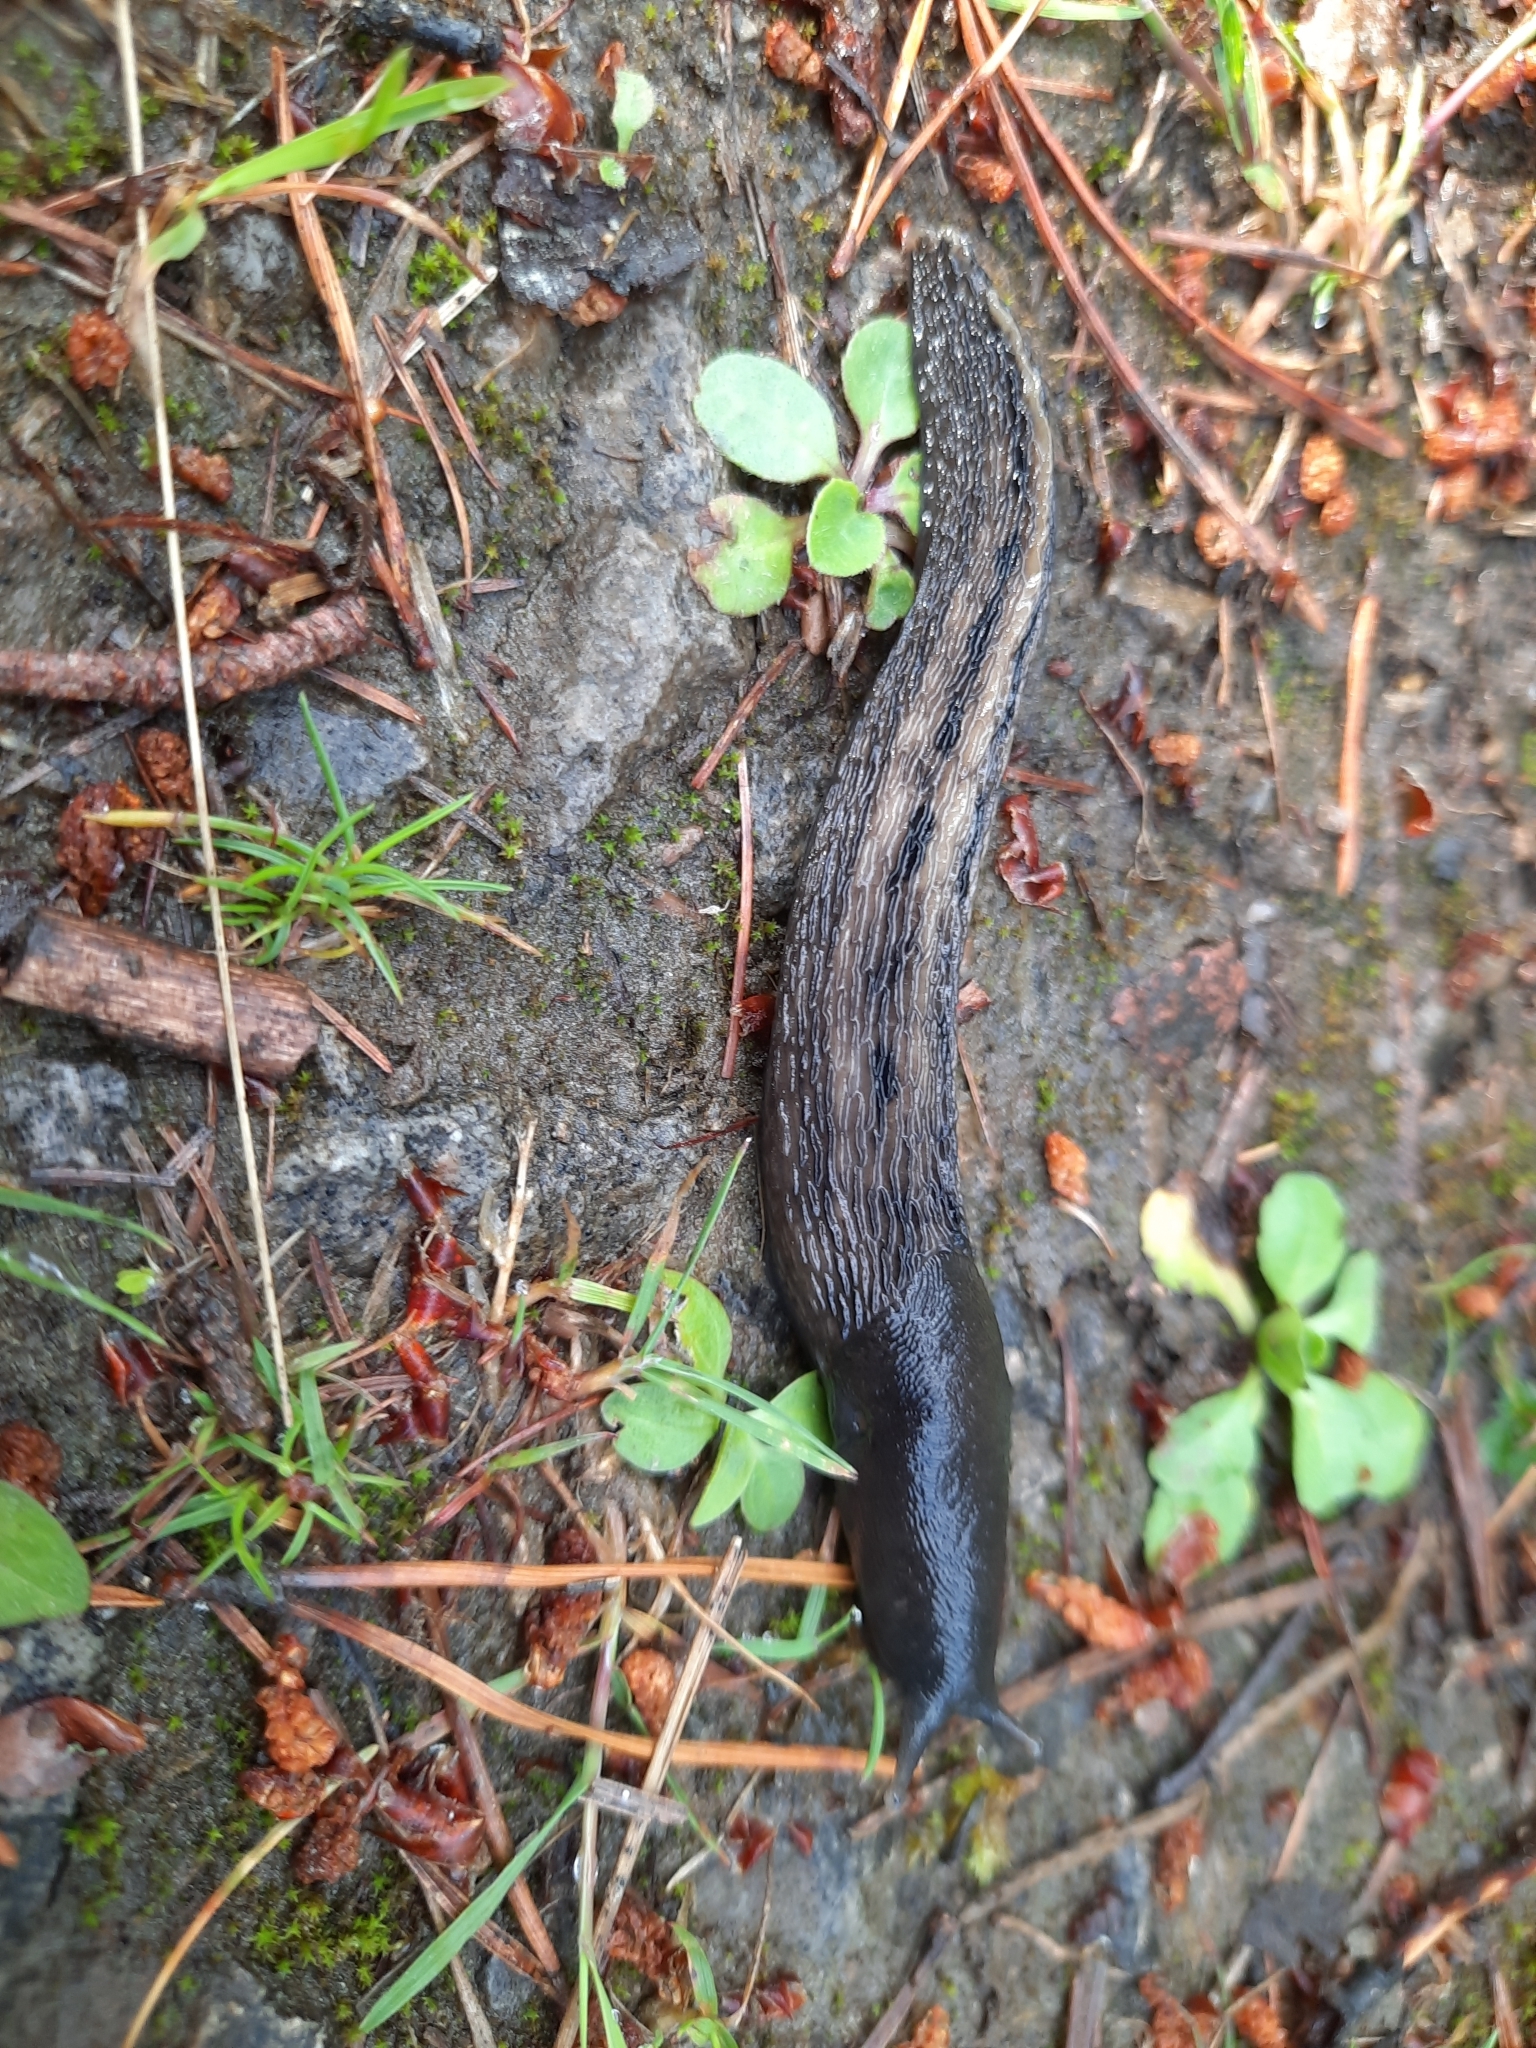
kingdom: Animalia
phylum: Mollusca
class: Gastropoda
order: Stylommatophora
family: Limacidae
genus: Limax
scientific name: Limax cinereoniger
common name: Ash-black slug
